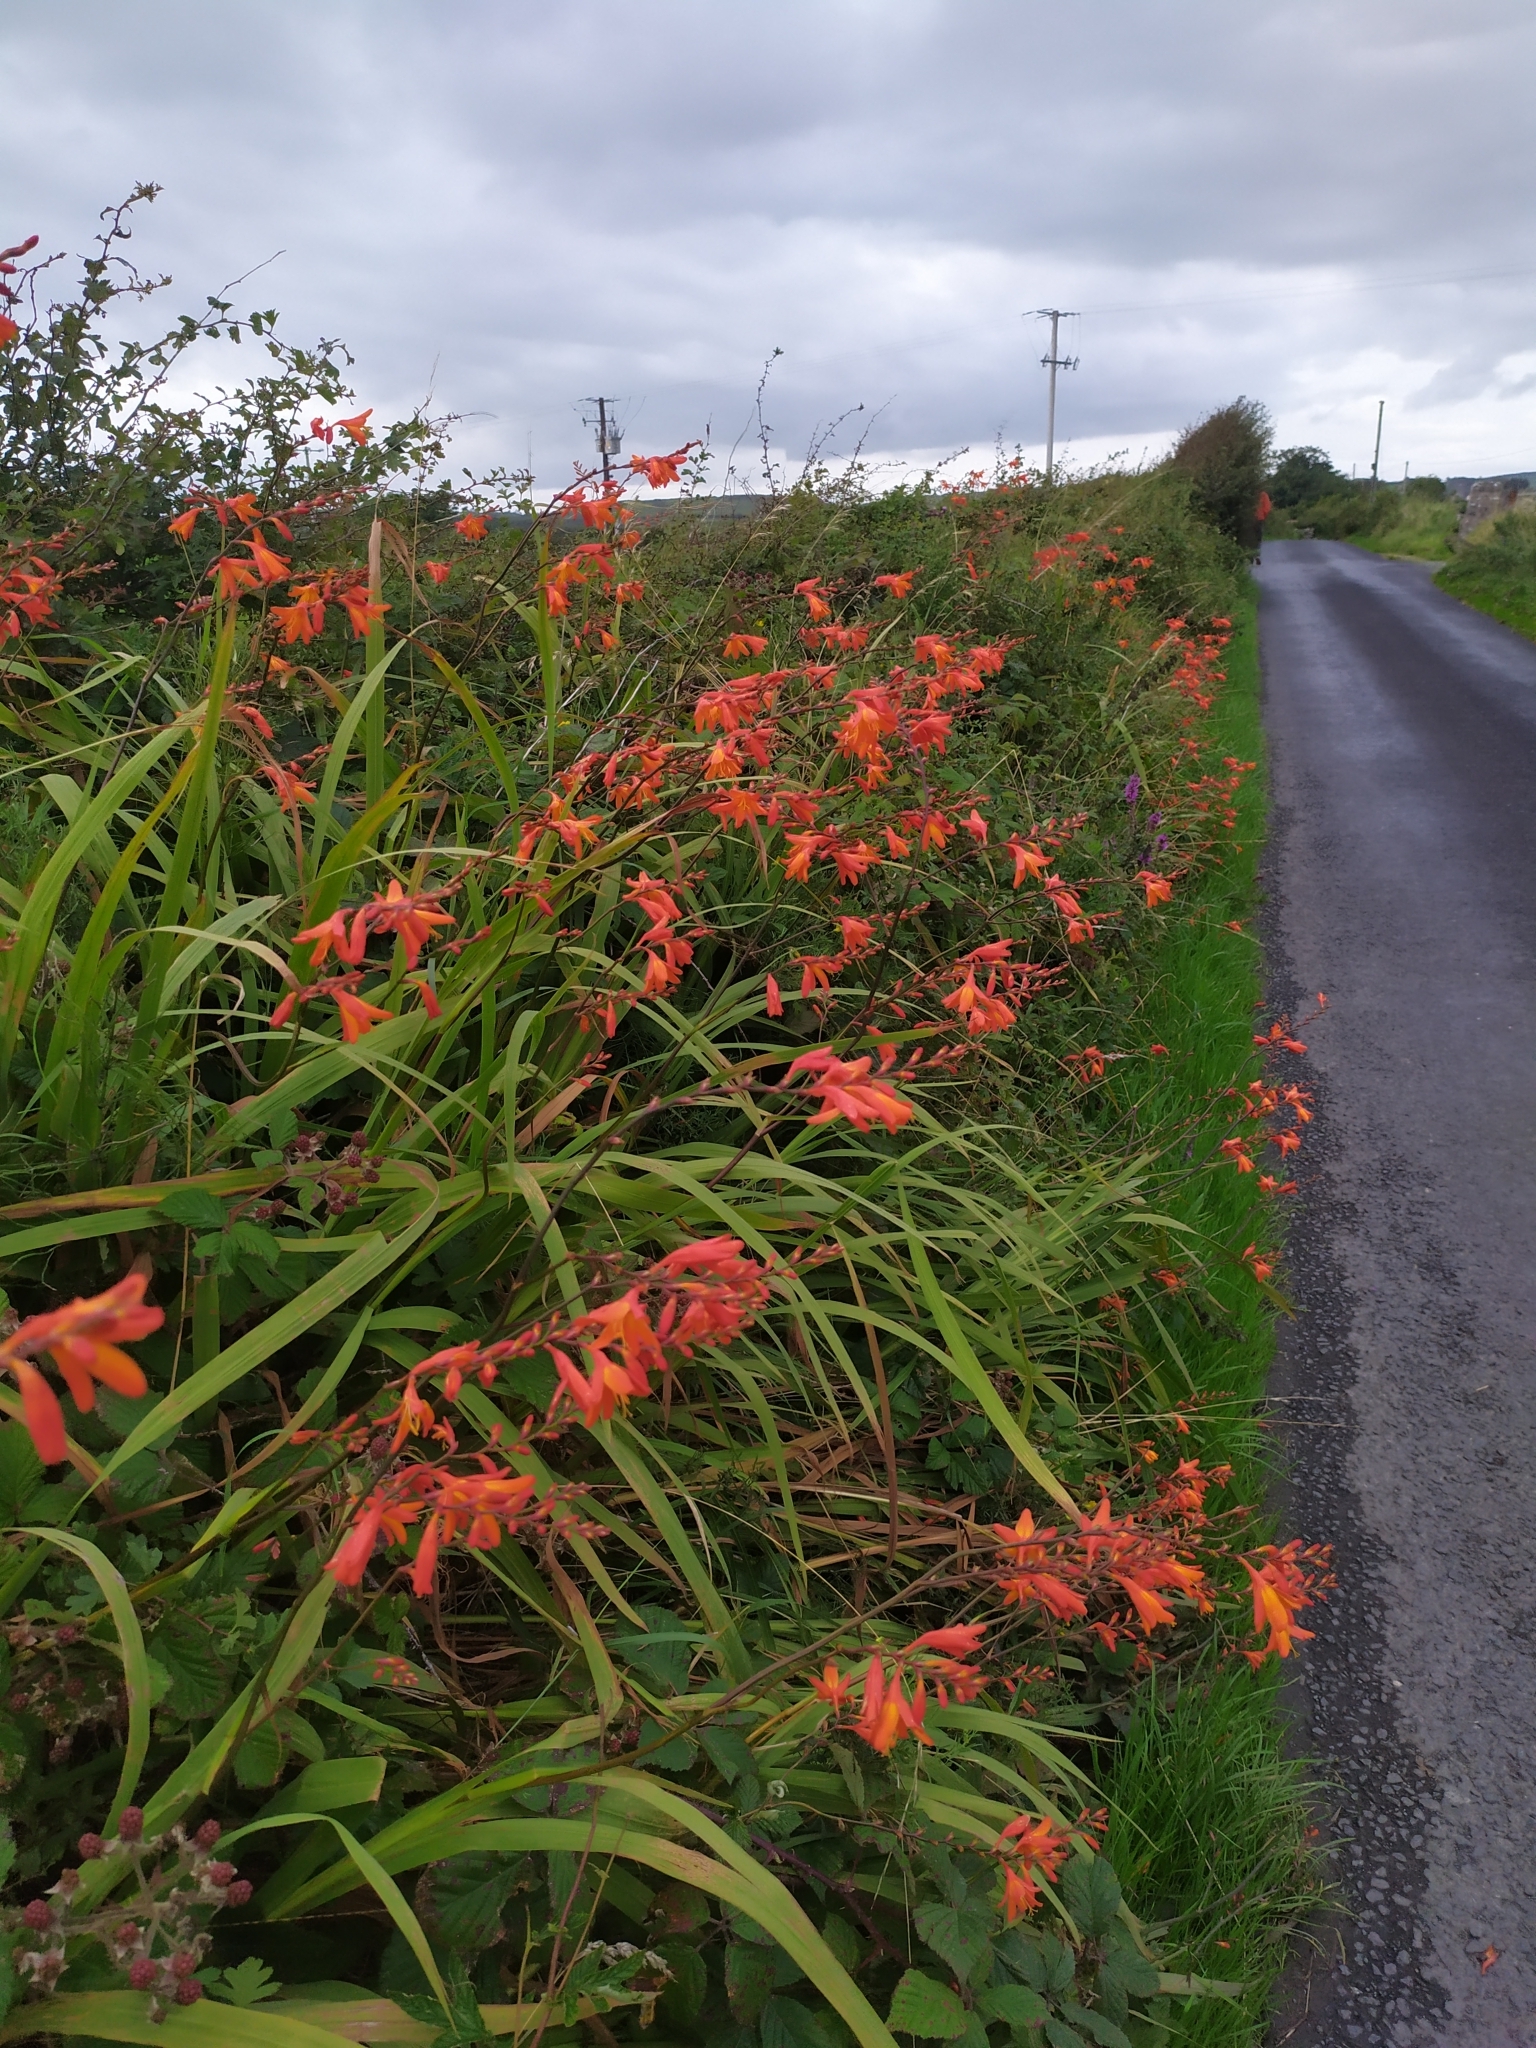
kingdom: Plantae
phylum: Tracheophyta
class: Liliopsida
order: Asparagales
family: Iridaceae
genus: Crocosmia
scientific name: Crocosmia crocosmiiflora
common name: Montbretia
